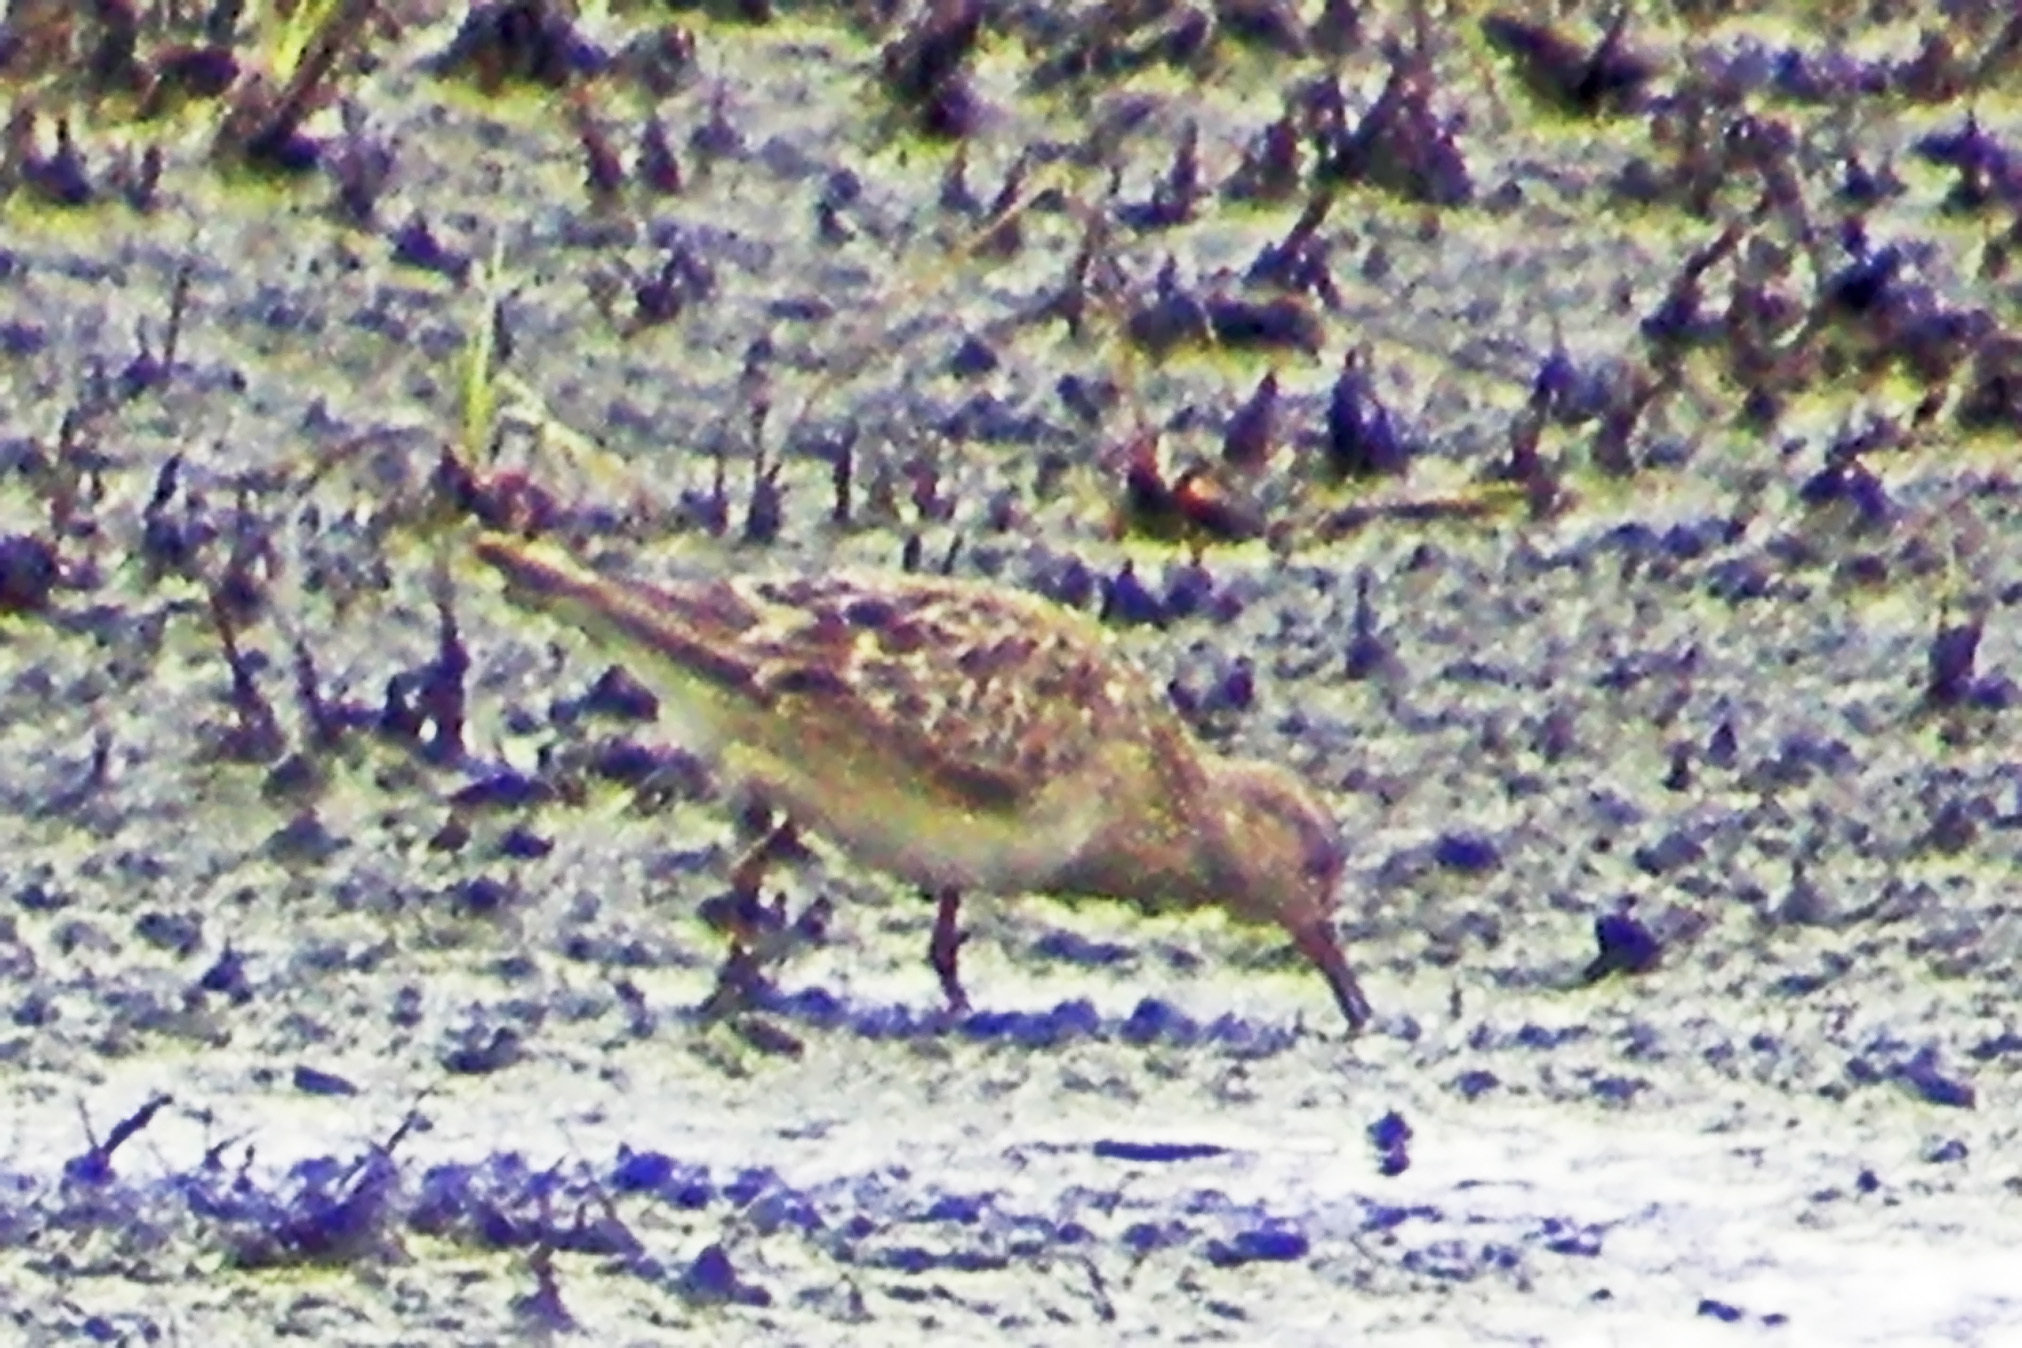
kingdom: Animalia
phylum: Chordata
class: Aves
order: Charadriiformes
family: Scolopacidae
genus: Calidris
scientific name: Calidris melanotos
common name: Pectoral sandpiper
